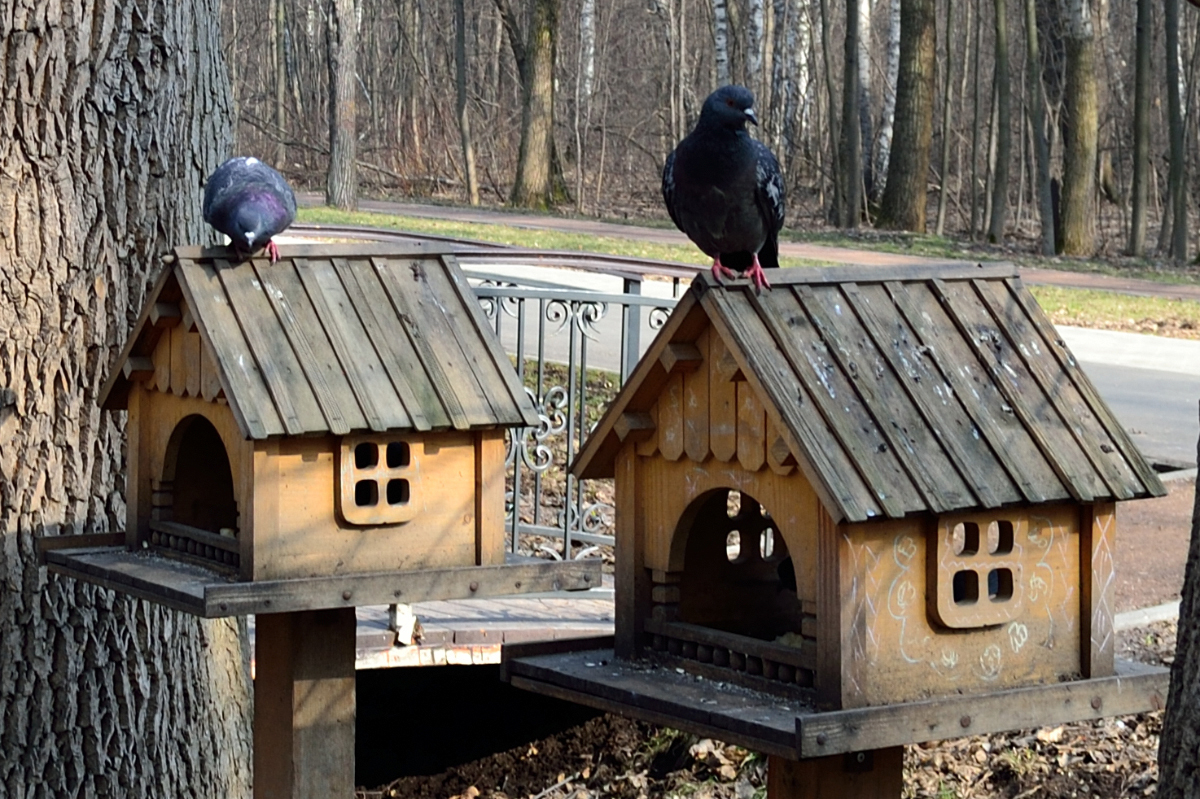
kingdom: Animalia
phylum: Chordata
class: Aves
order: Columbiformes
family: Columbidae
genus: Columba
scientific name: Columba livia
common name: Rock pigeon
